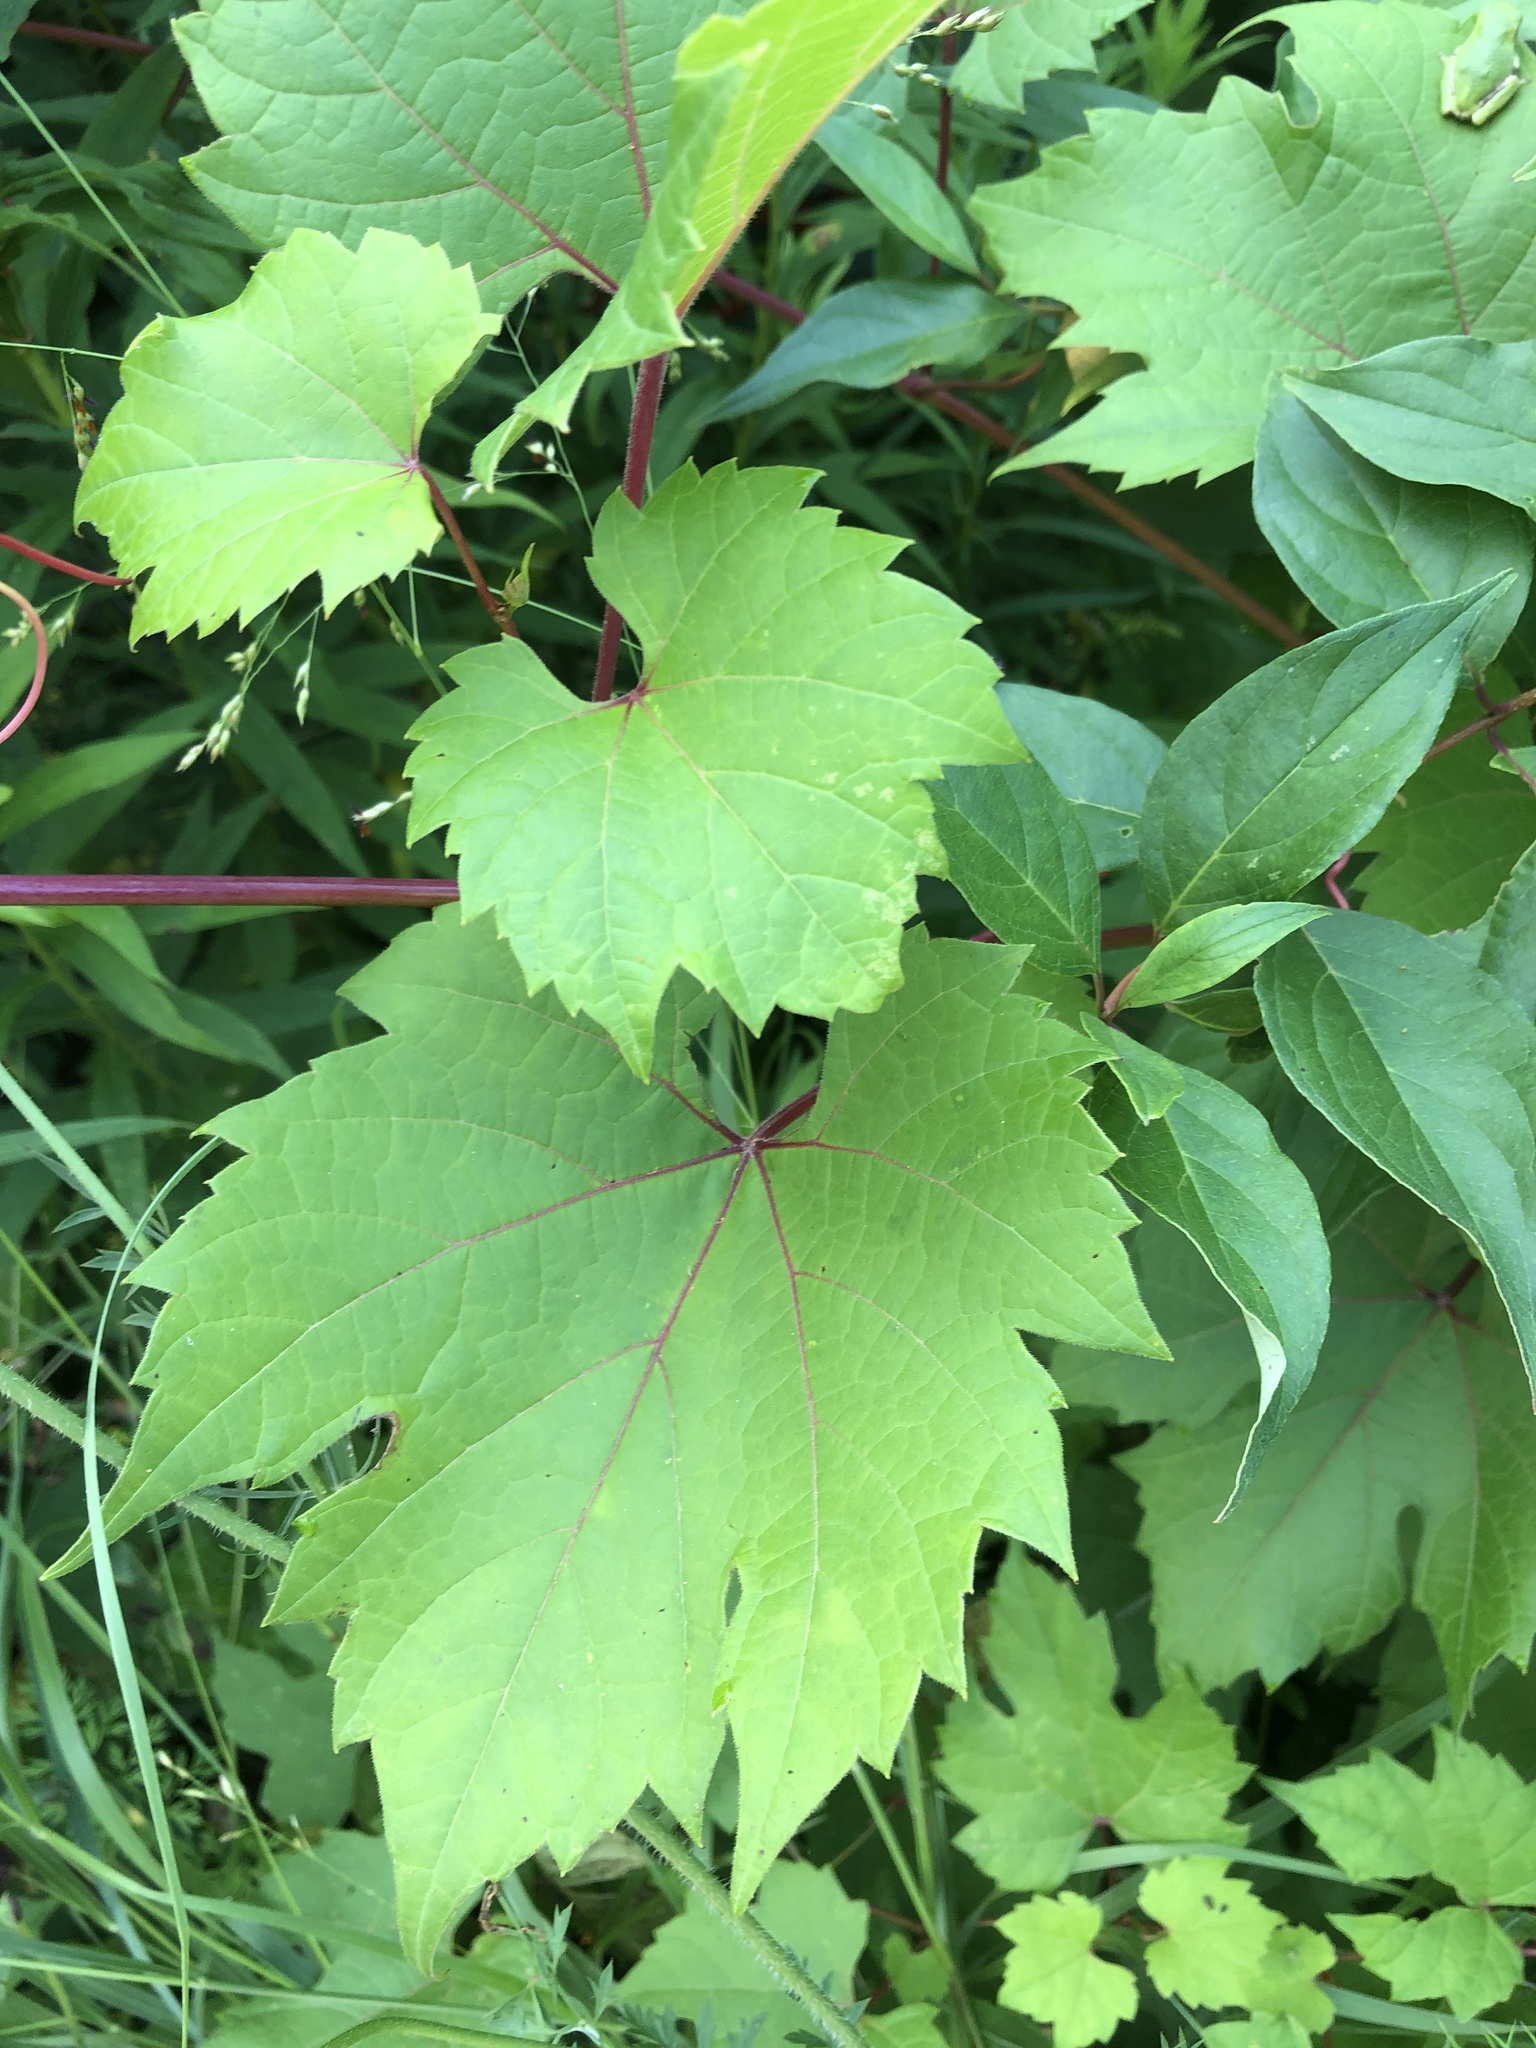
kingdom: Plantae
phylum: Tracheophyta
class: Magnoliopsida
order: Vitales
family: Vitaceae
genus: Vitis
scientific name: Vitis riparia
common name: Frost grape
